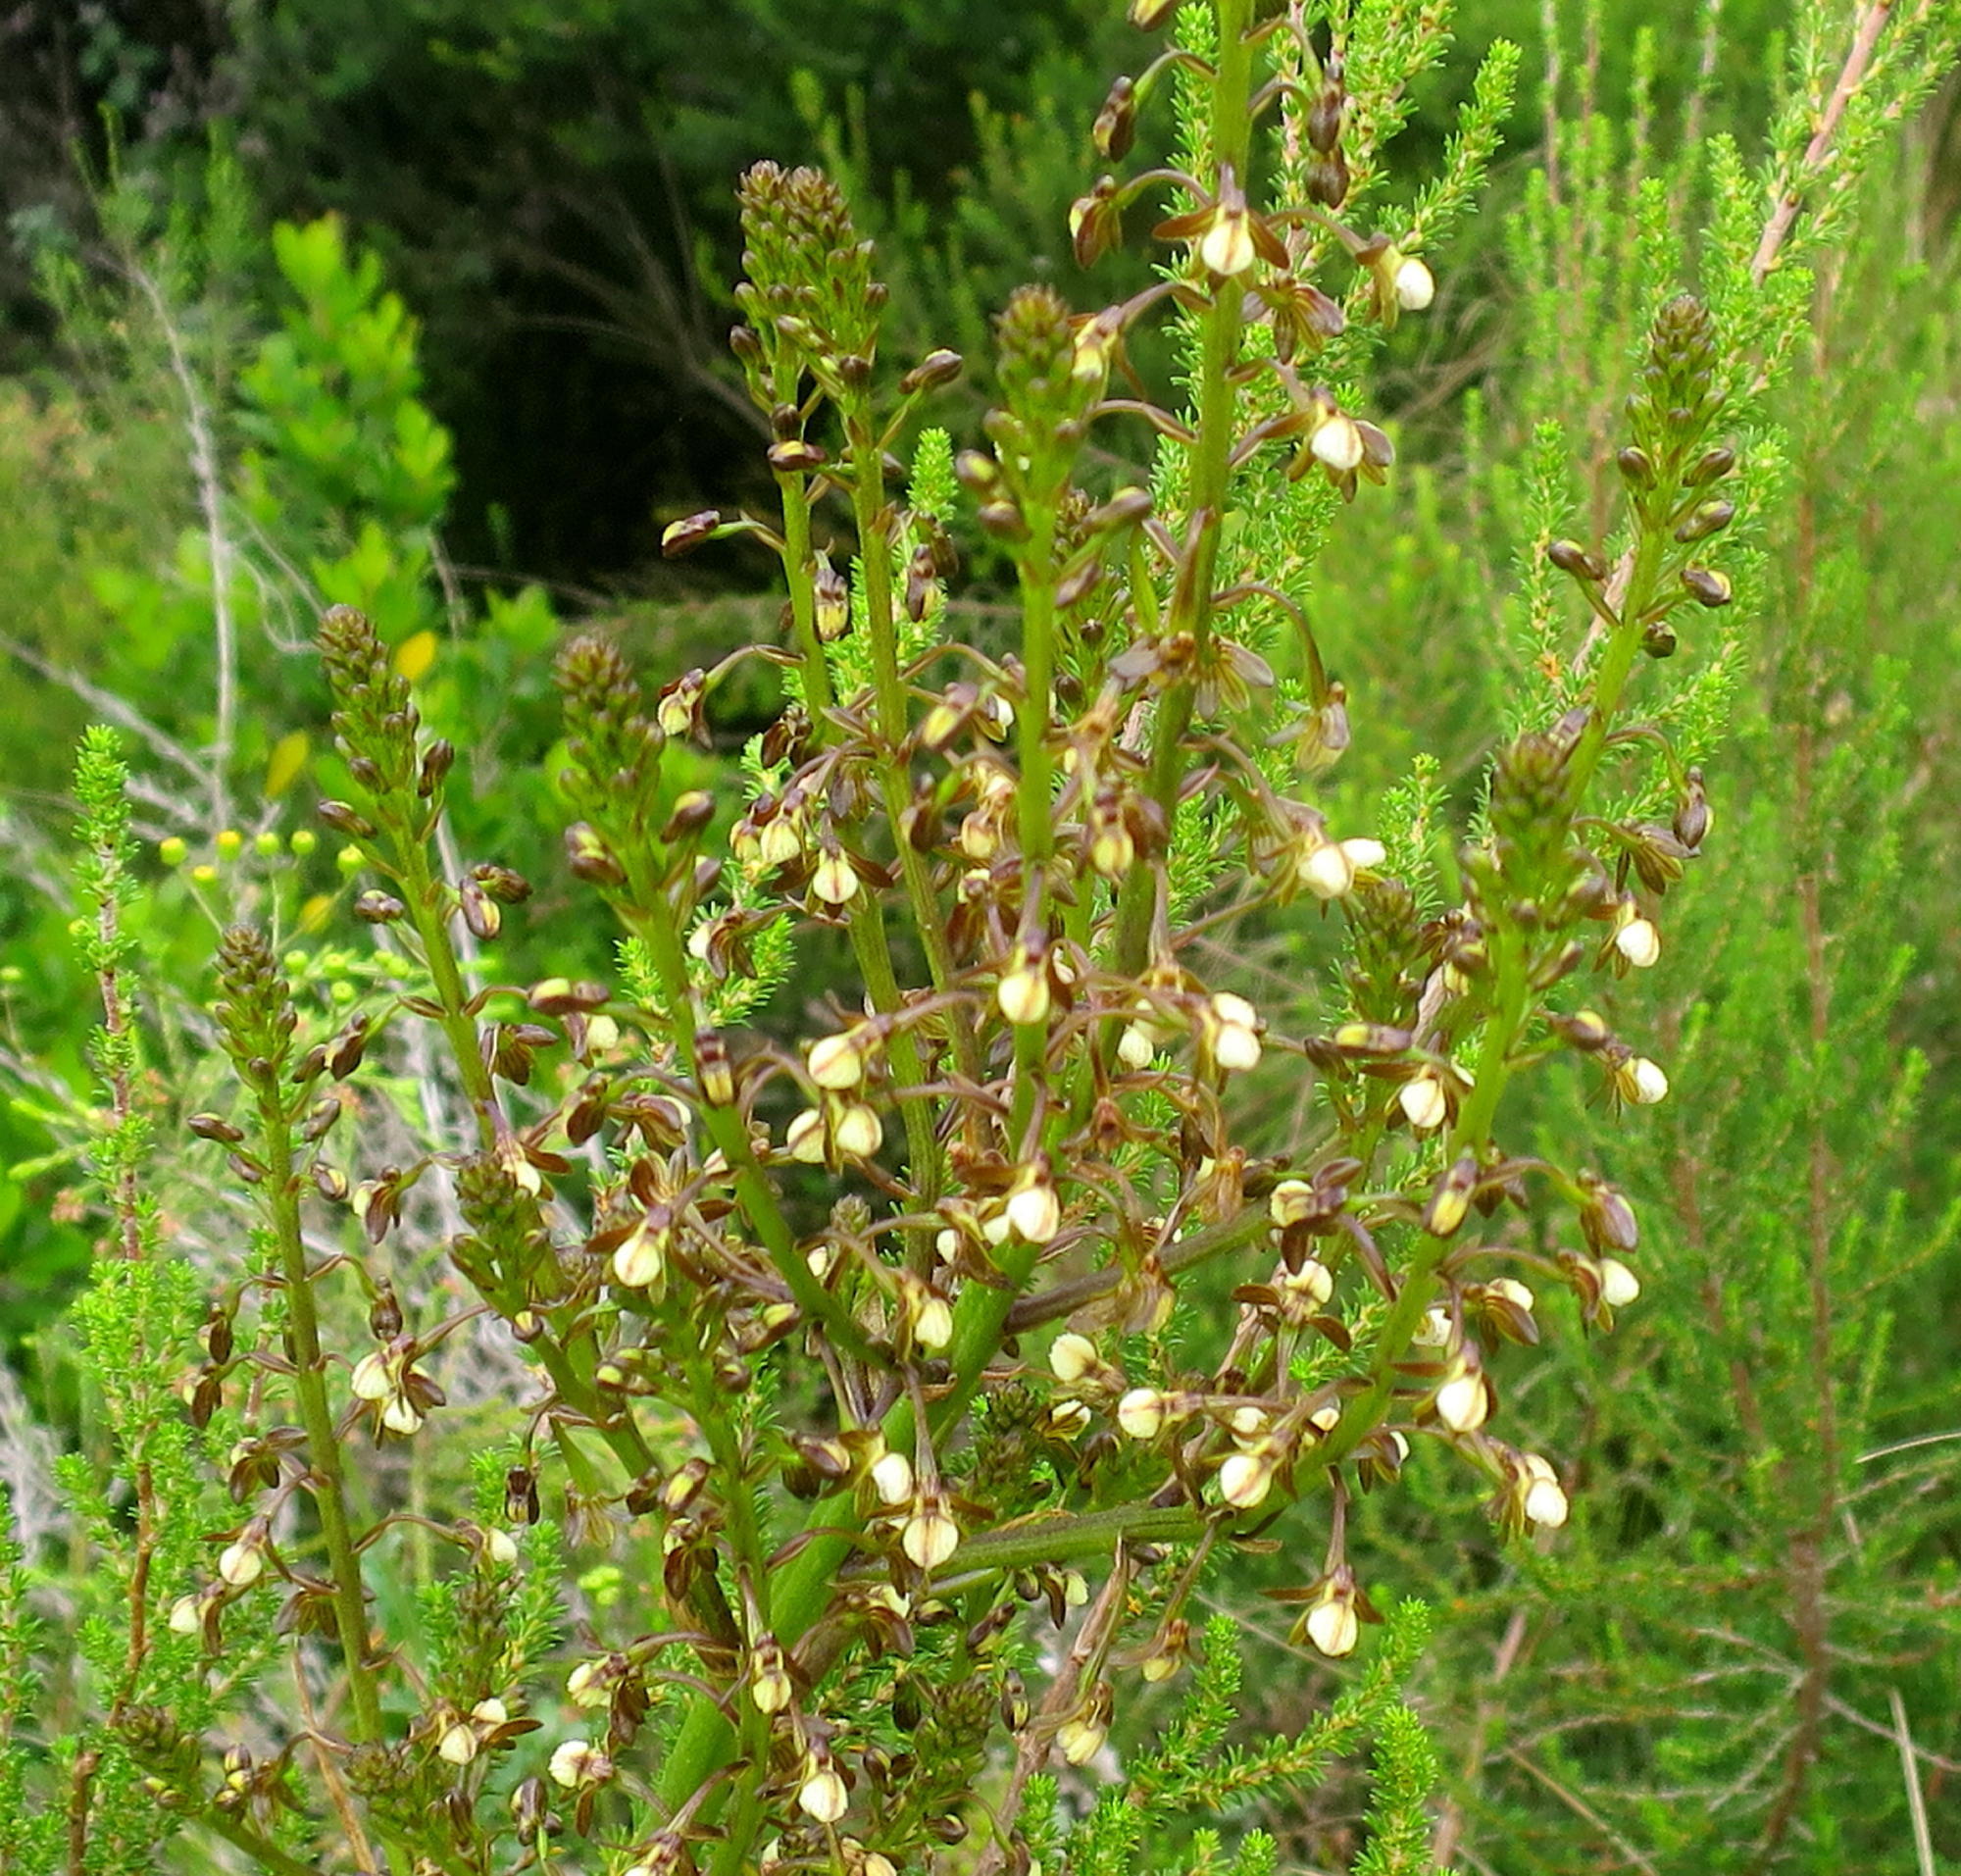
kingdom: Plantae
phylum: Tracheophyta
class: Liliopsida
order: Asparagales
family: Orchidaceae
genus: Eulophia
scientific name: Eulophia cochlearis
